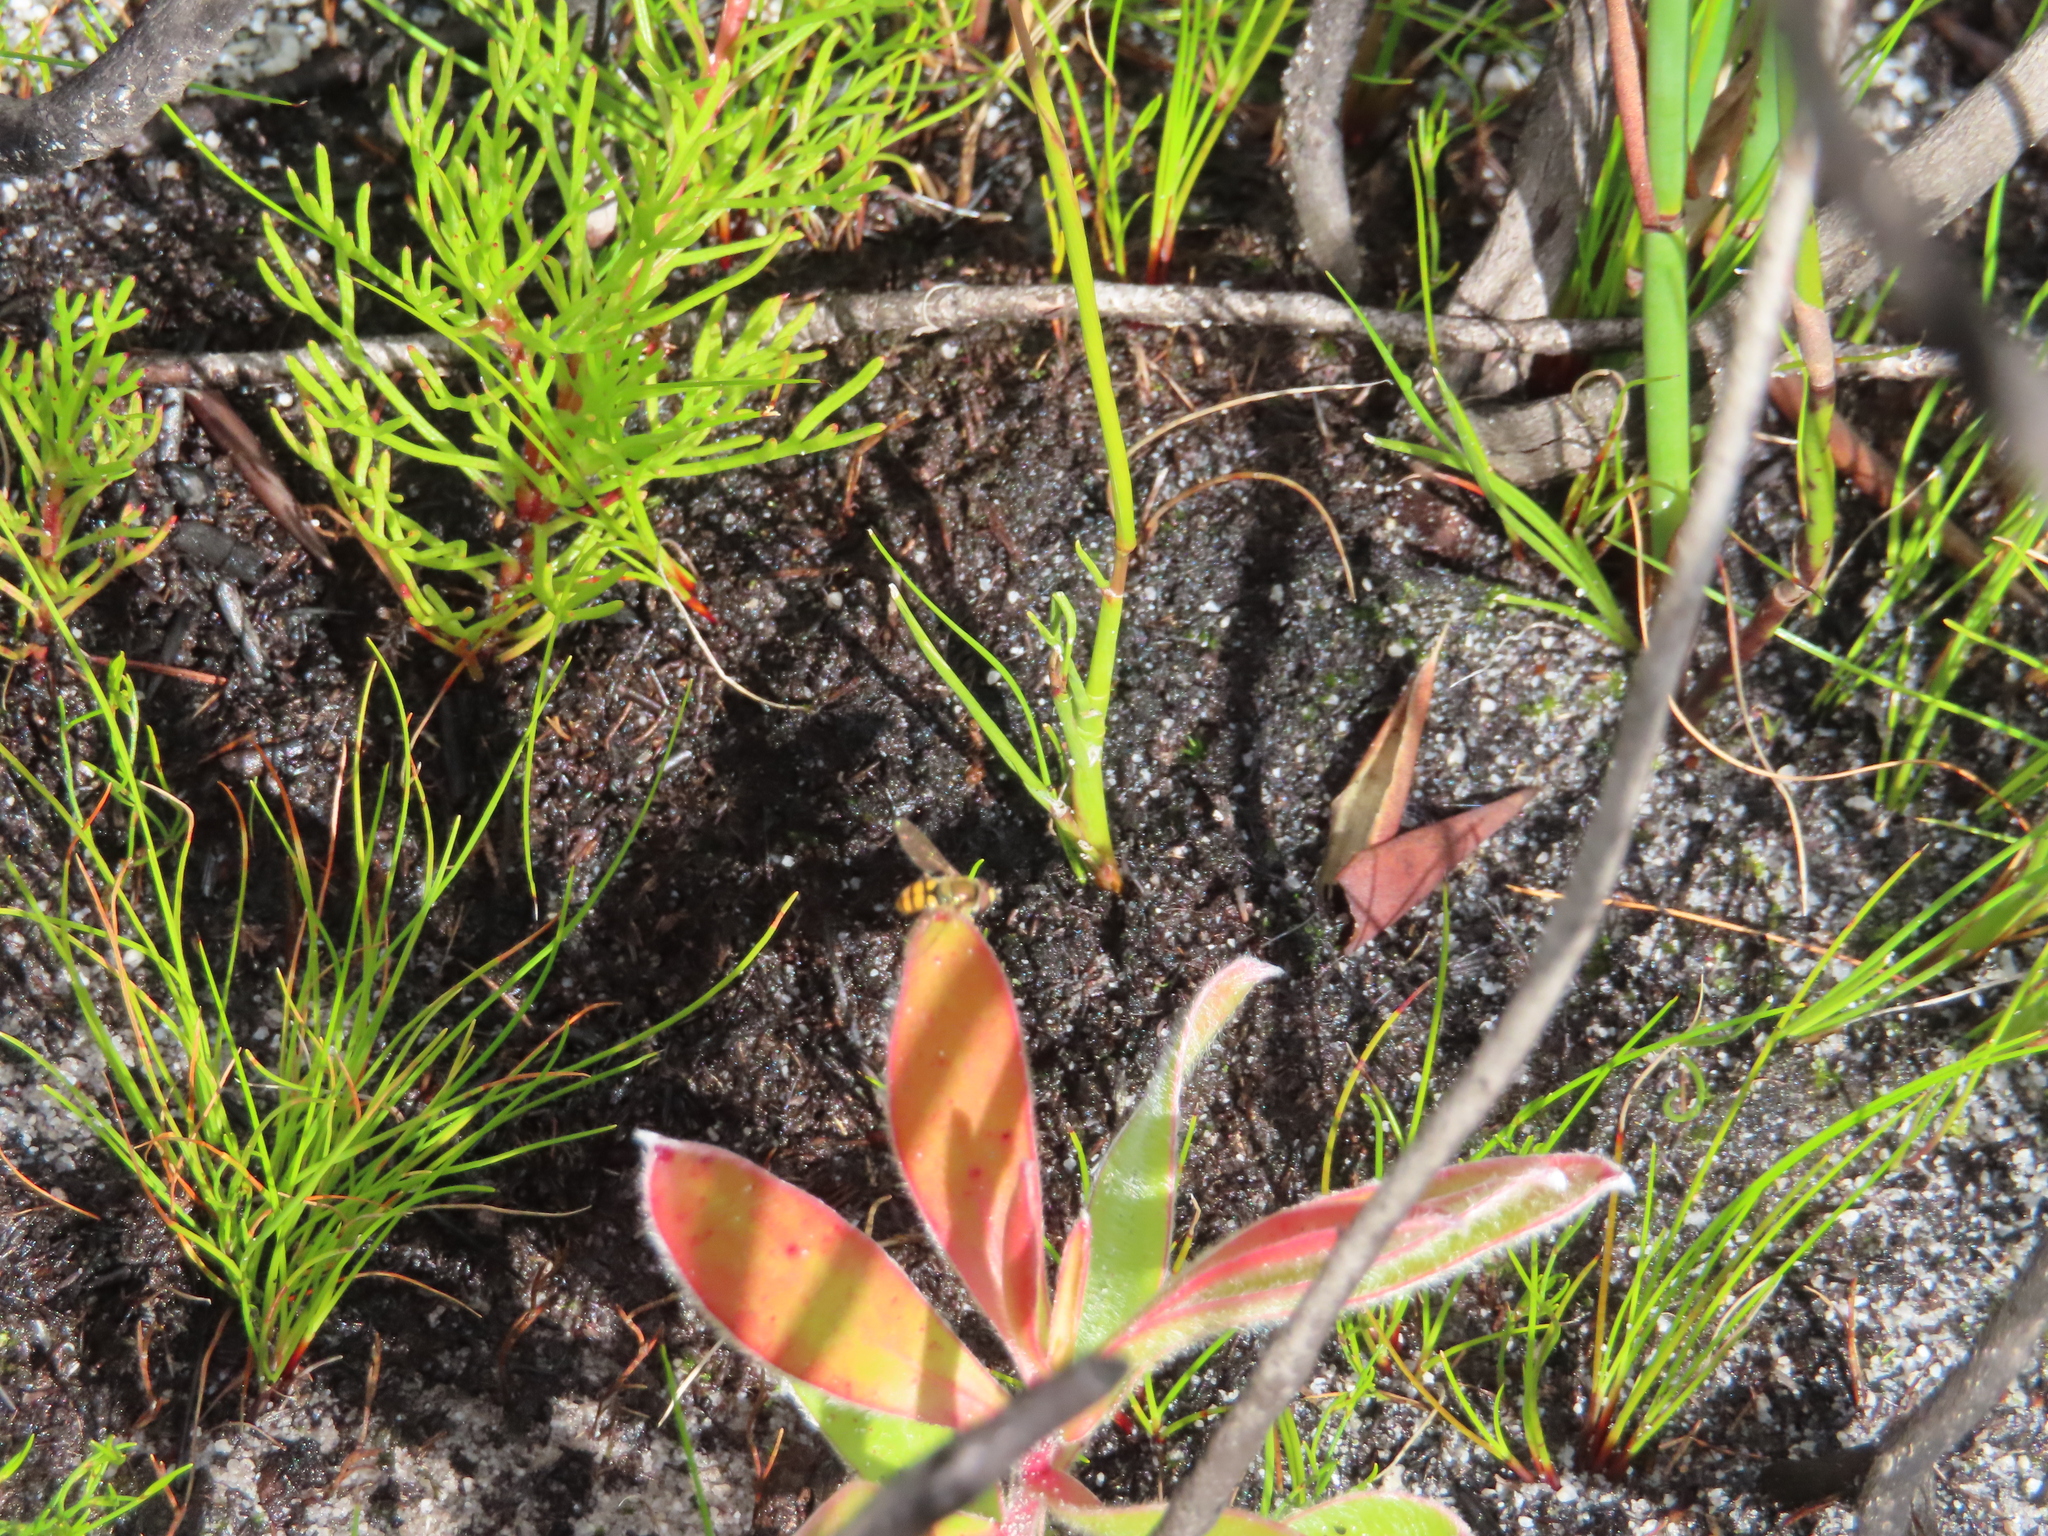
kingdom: Animalia
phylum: Arthropoda
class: Insecta
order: Diptera
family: Syrphidae
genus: Eupeodes
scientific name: Eupeodes corollae
